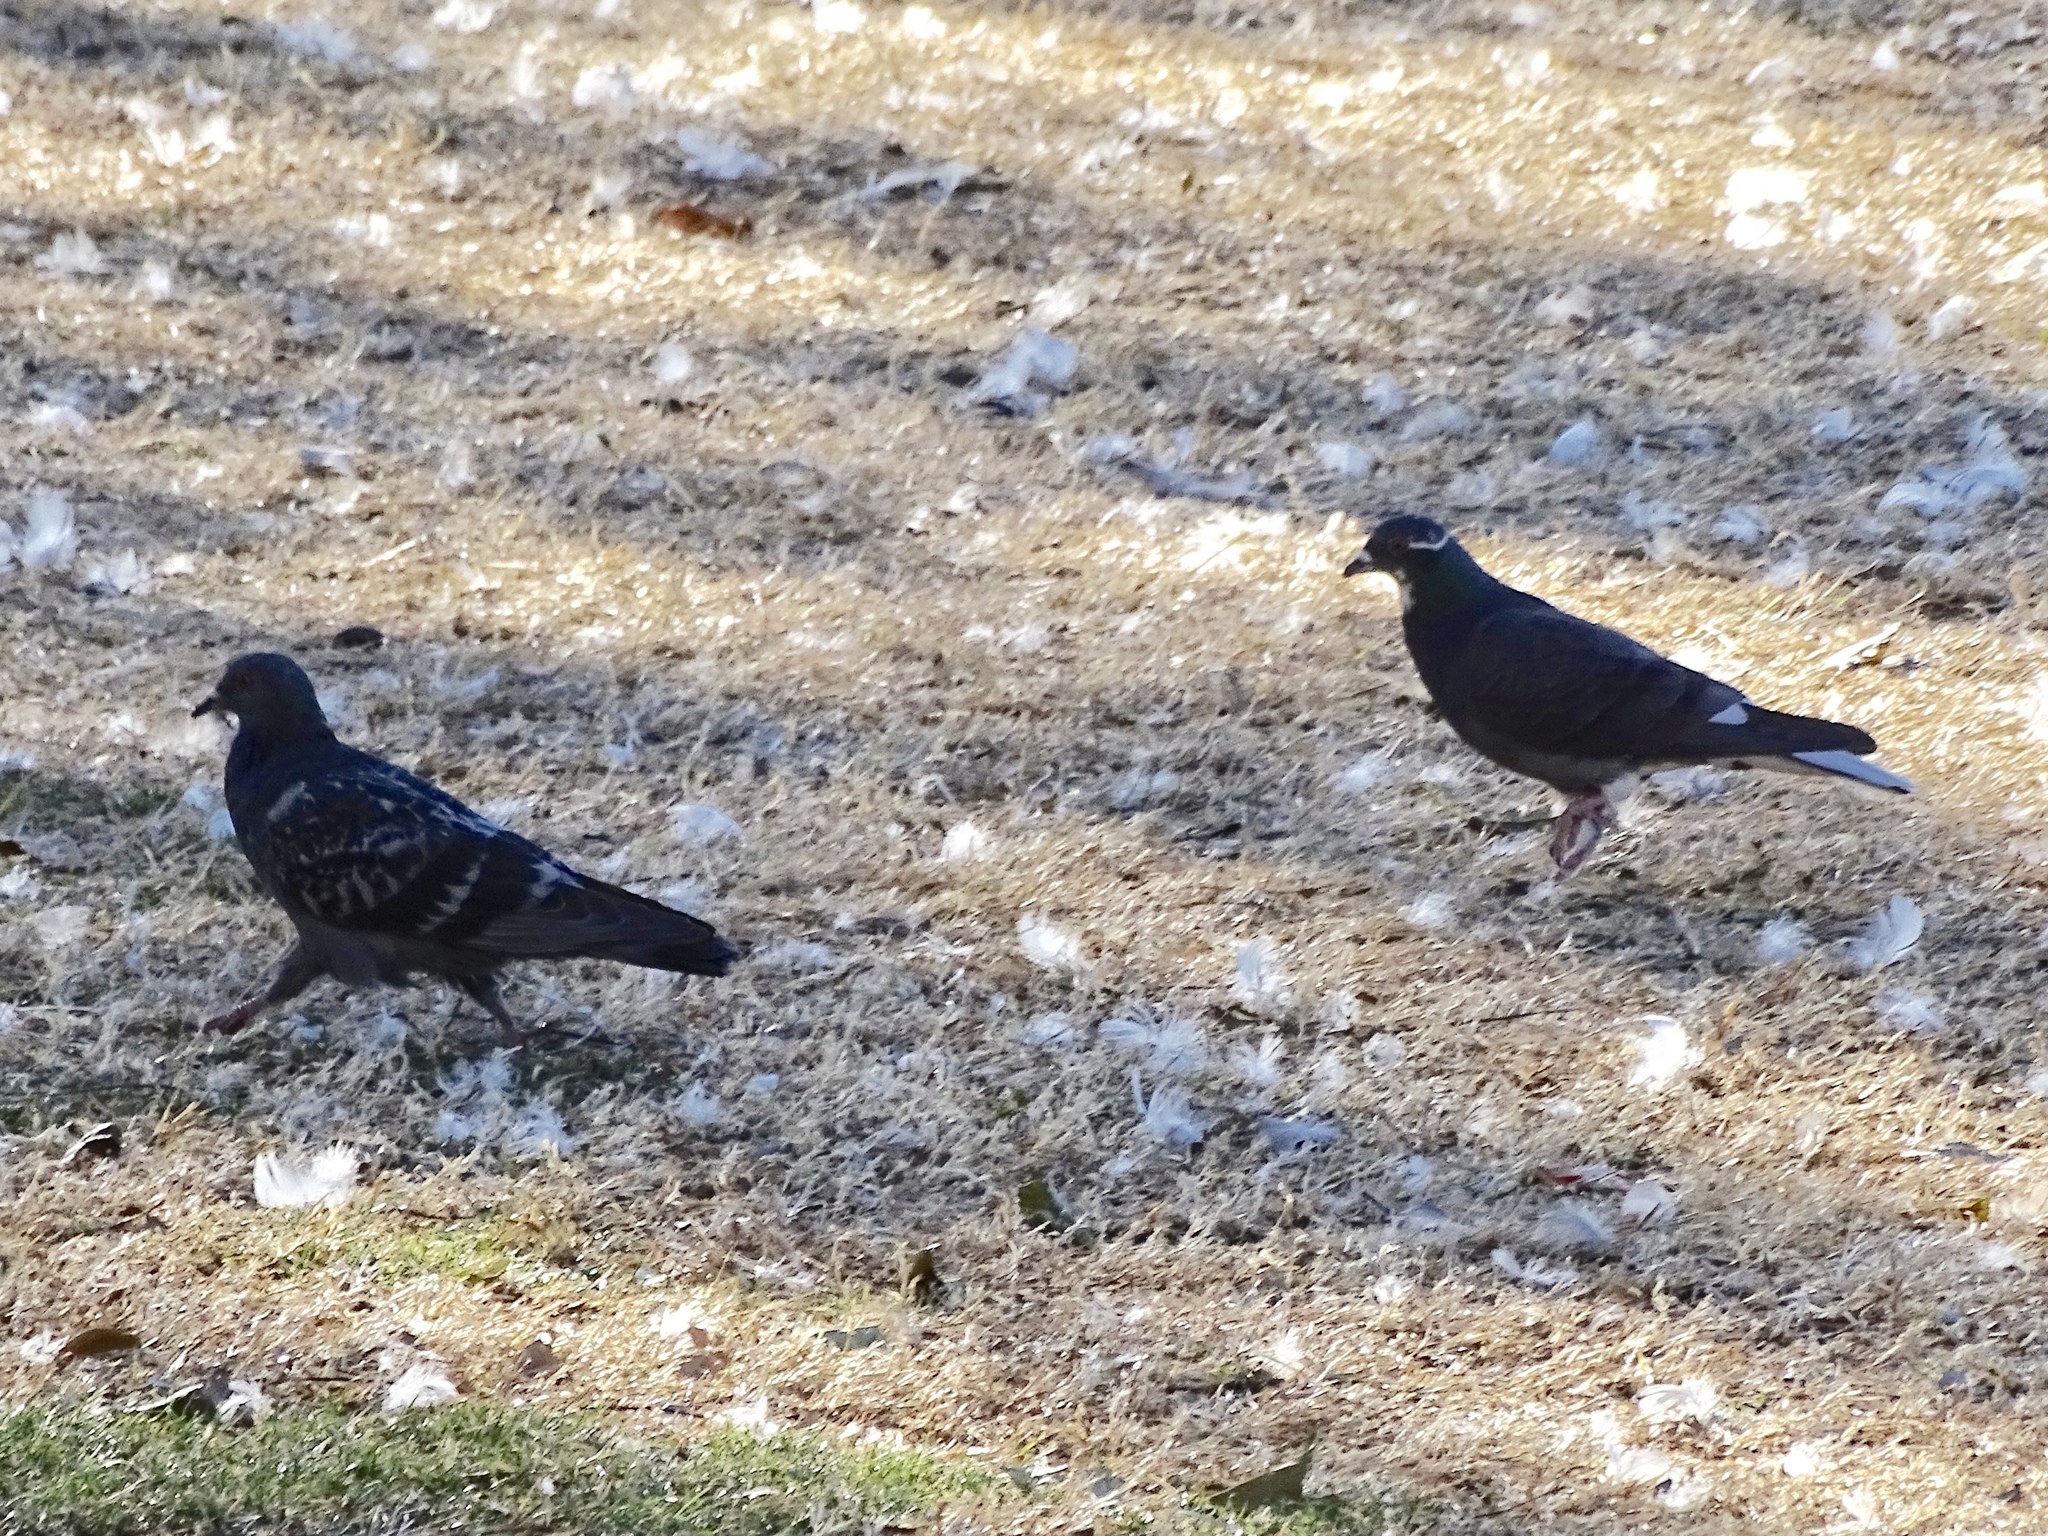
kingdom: Animalia
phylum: Chordata
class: Aves
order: Columbiformes
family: Columbidae
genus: Columba
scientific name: Columba livia
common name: Rock pigeon
